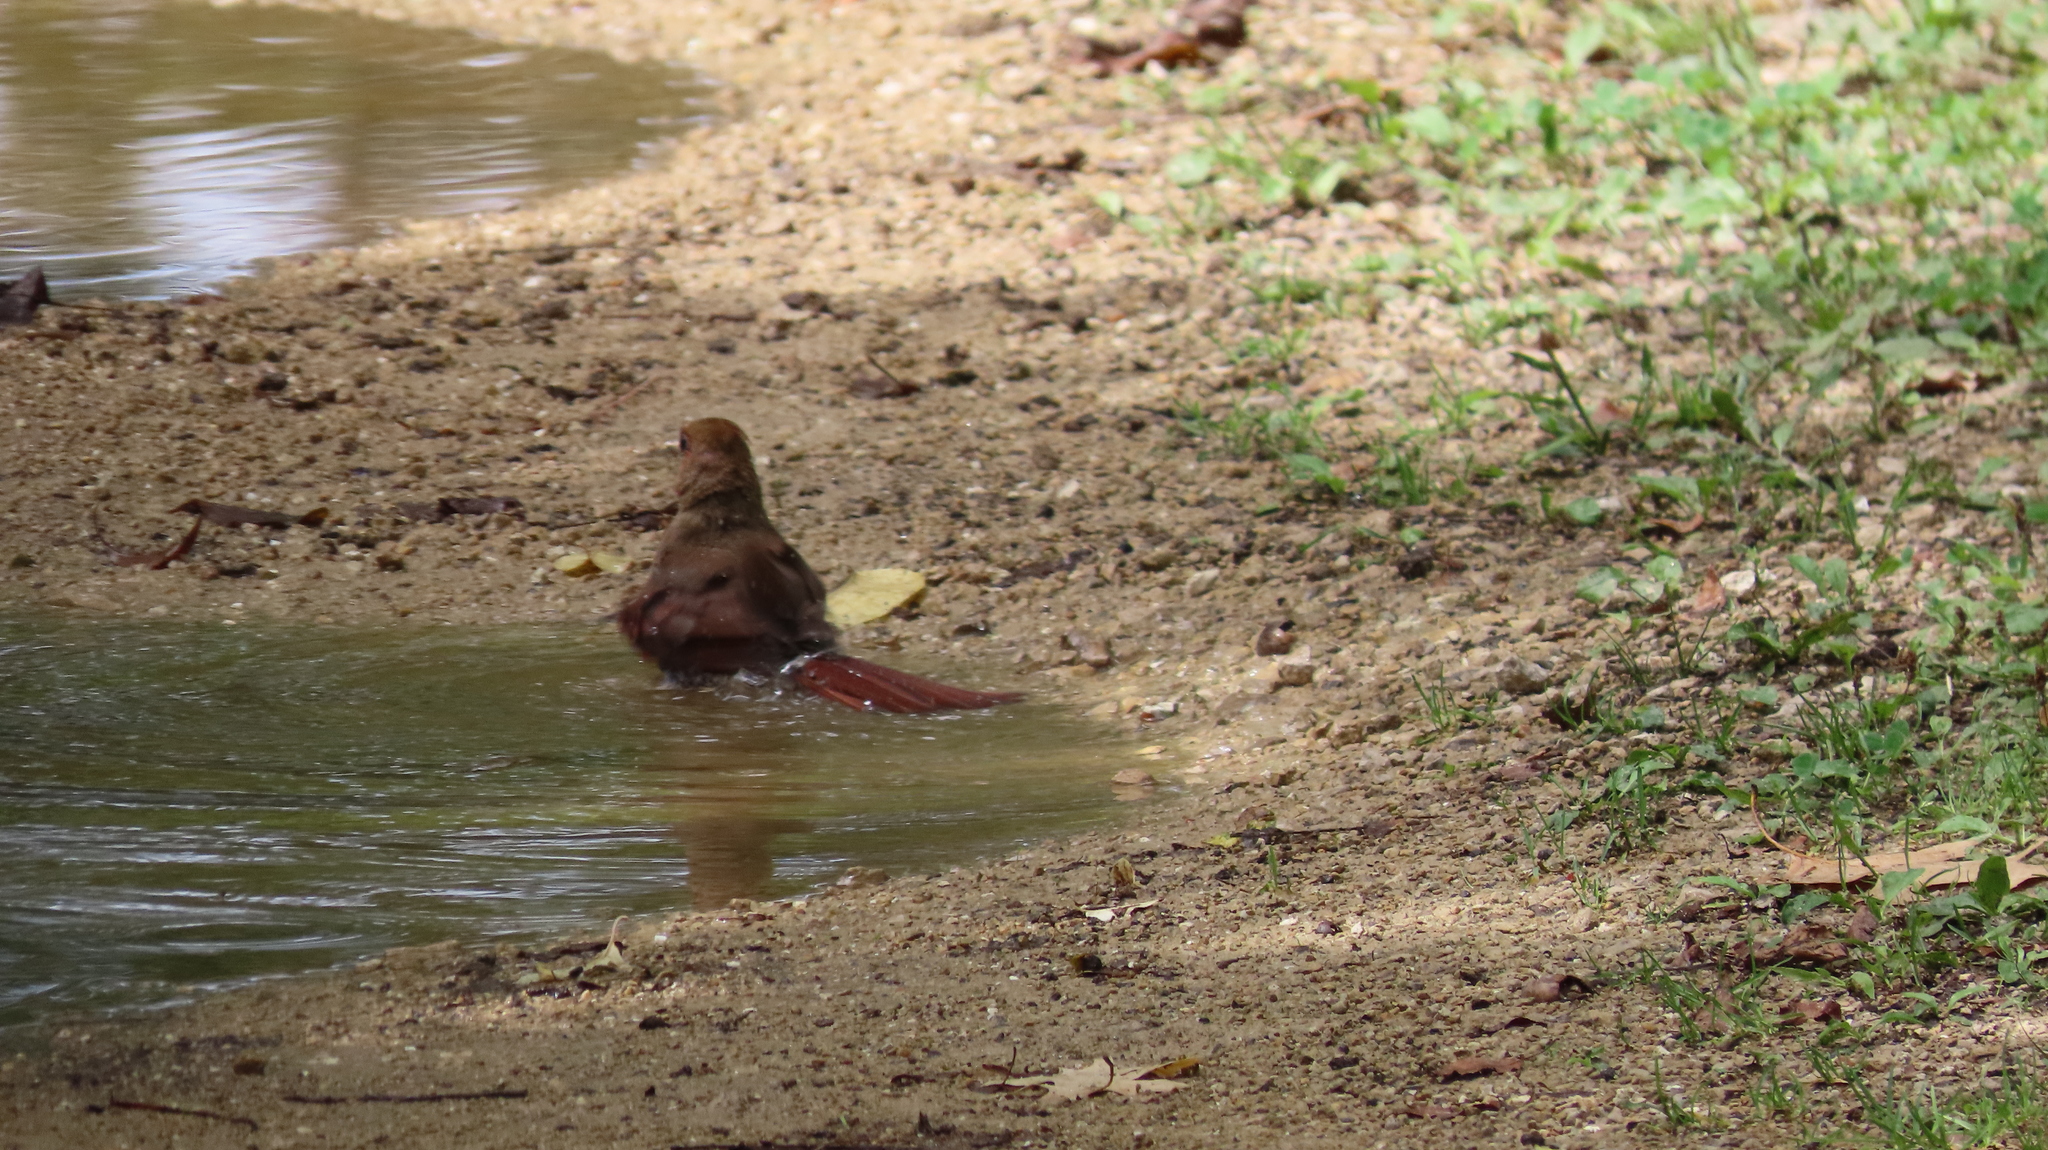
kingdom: Animalia
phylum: Chordata
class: Aves
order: Passeriformes
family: Cardinalidae
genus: Cardinalis
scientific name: Cardinalis cardinalis
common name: Northern cardinal
